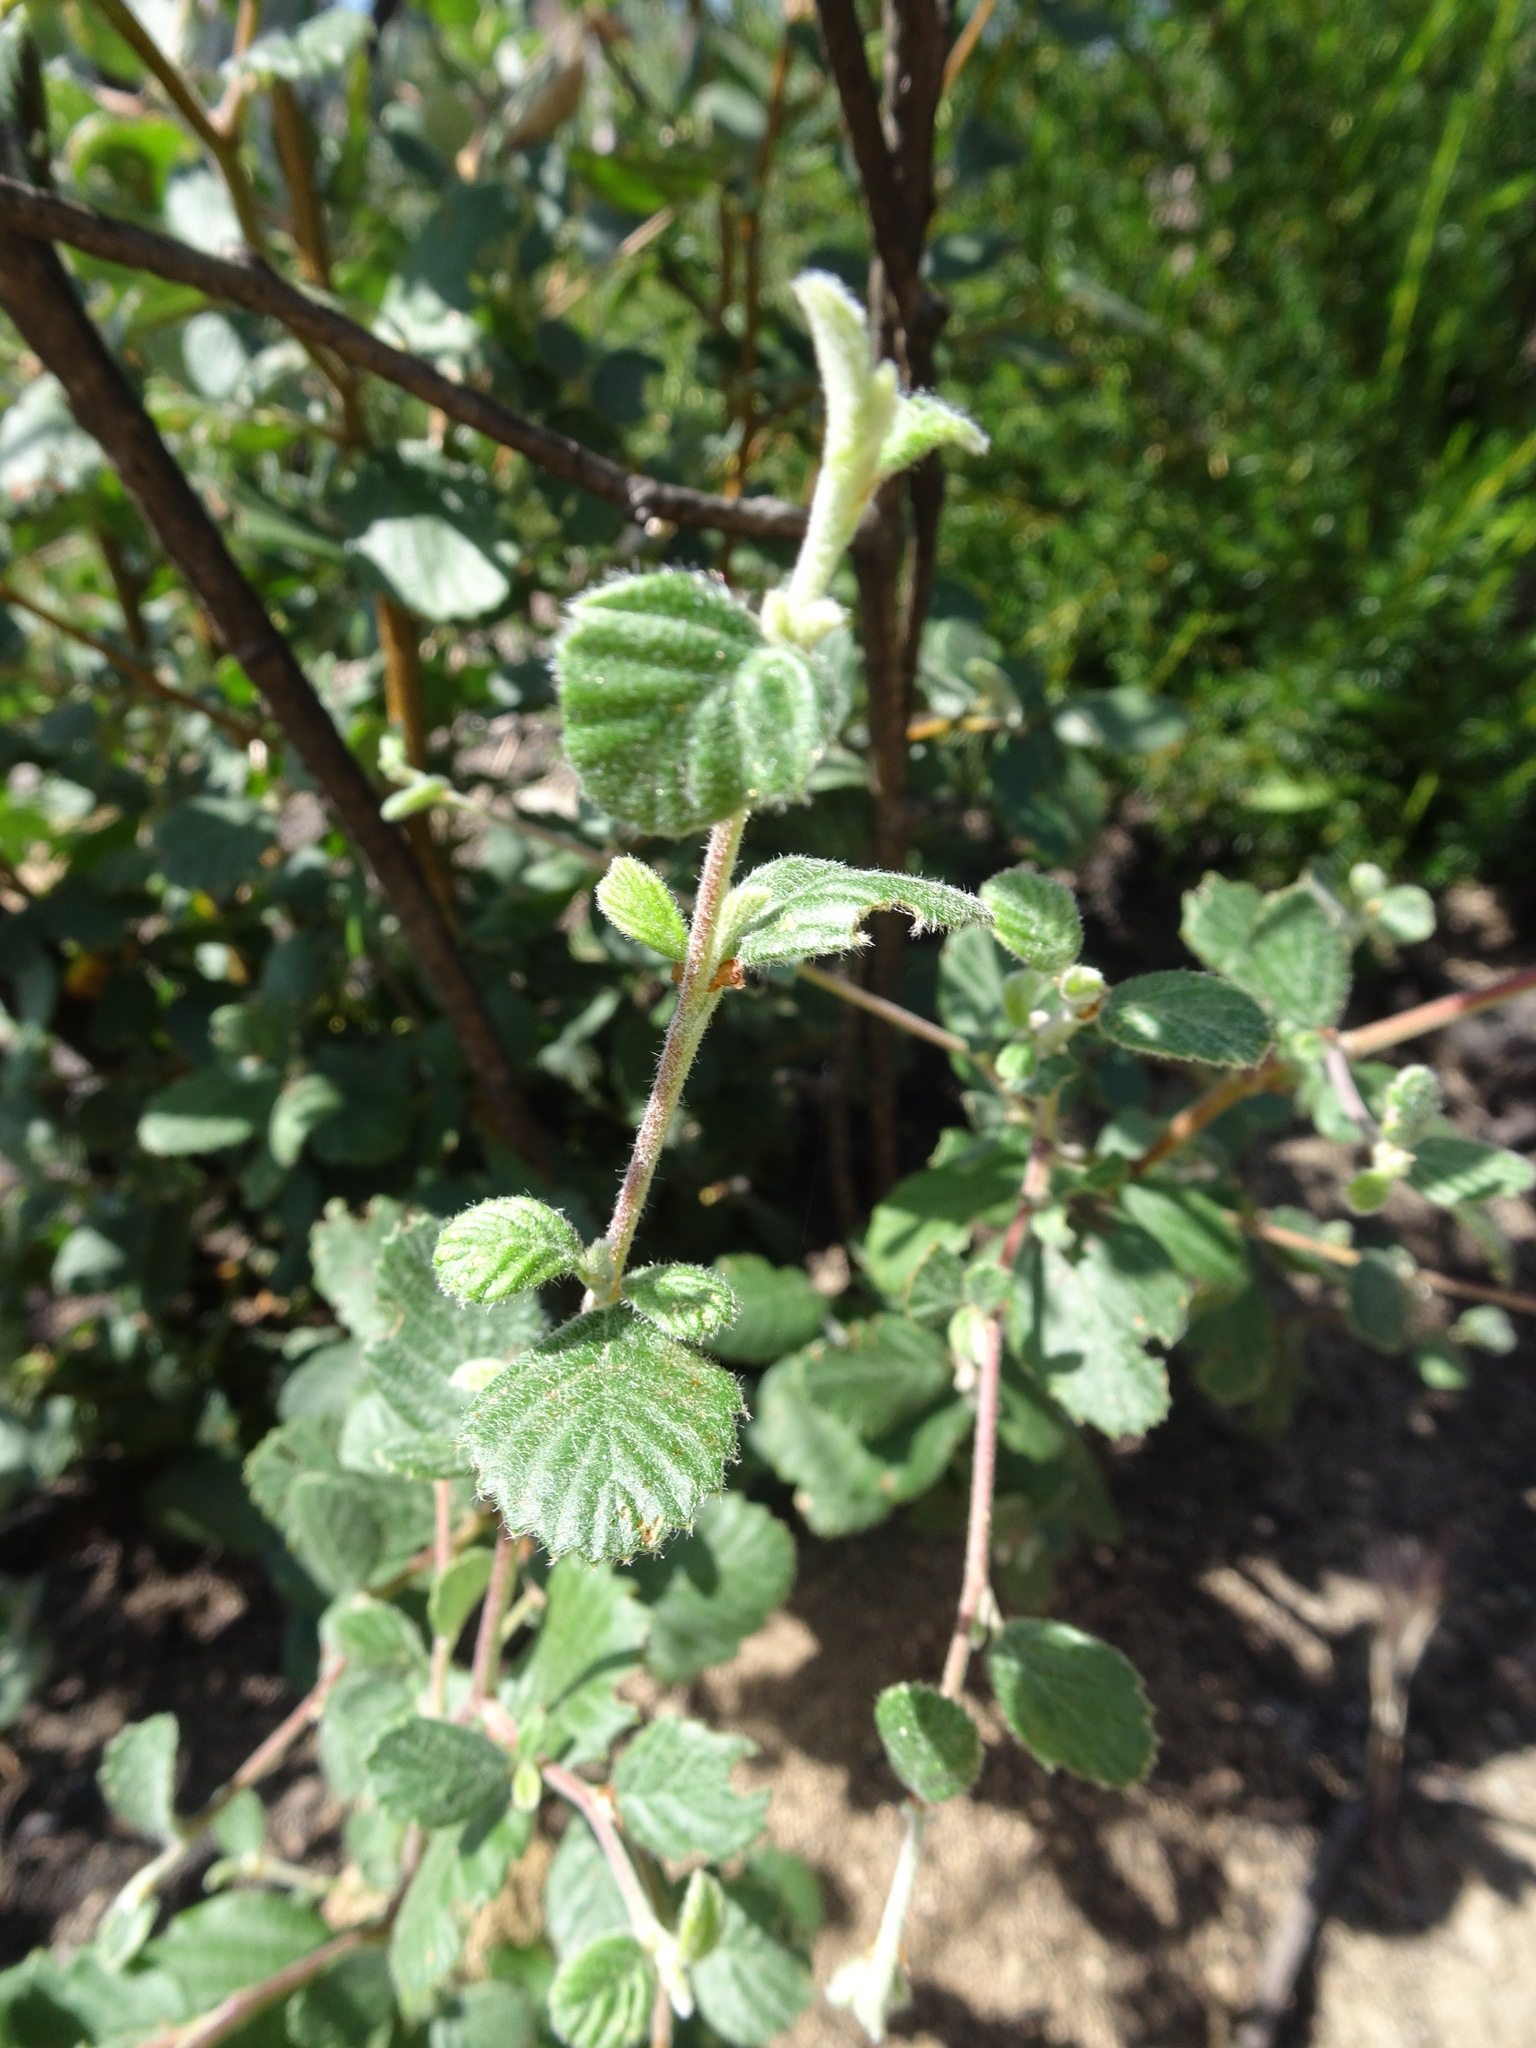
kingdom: Plantae
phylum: Tracheophyta
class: Magnoliopsida
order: Rosales
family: Rosaceae
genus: Cercocarpus
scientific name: Cercocarpus betuloides
